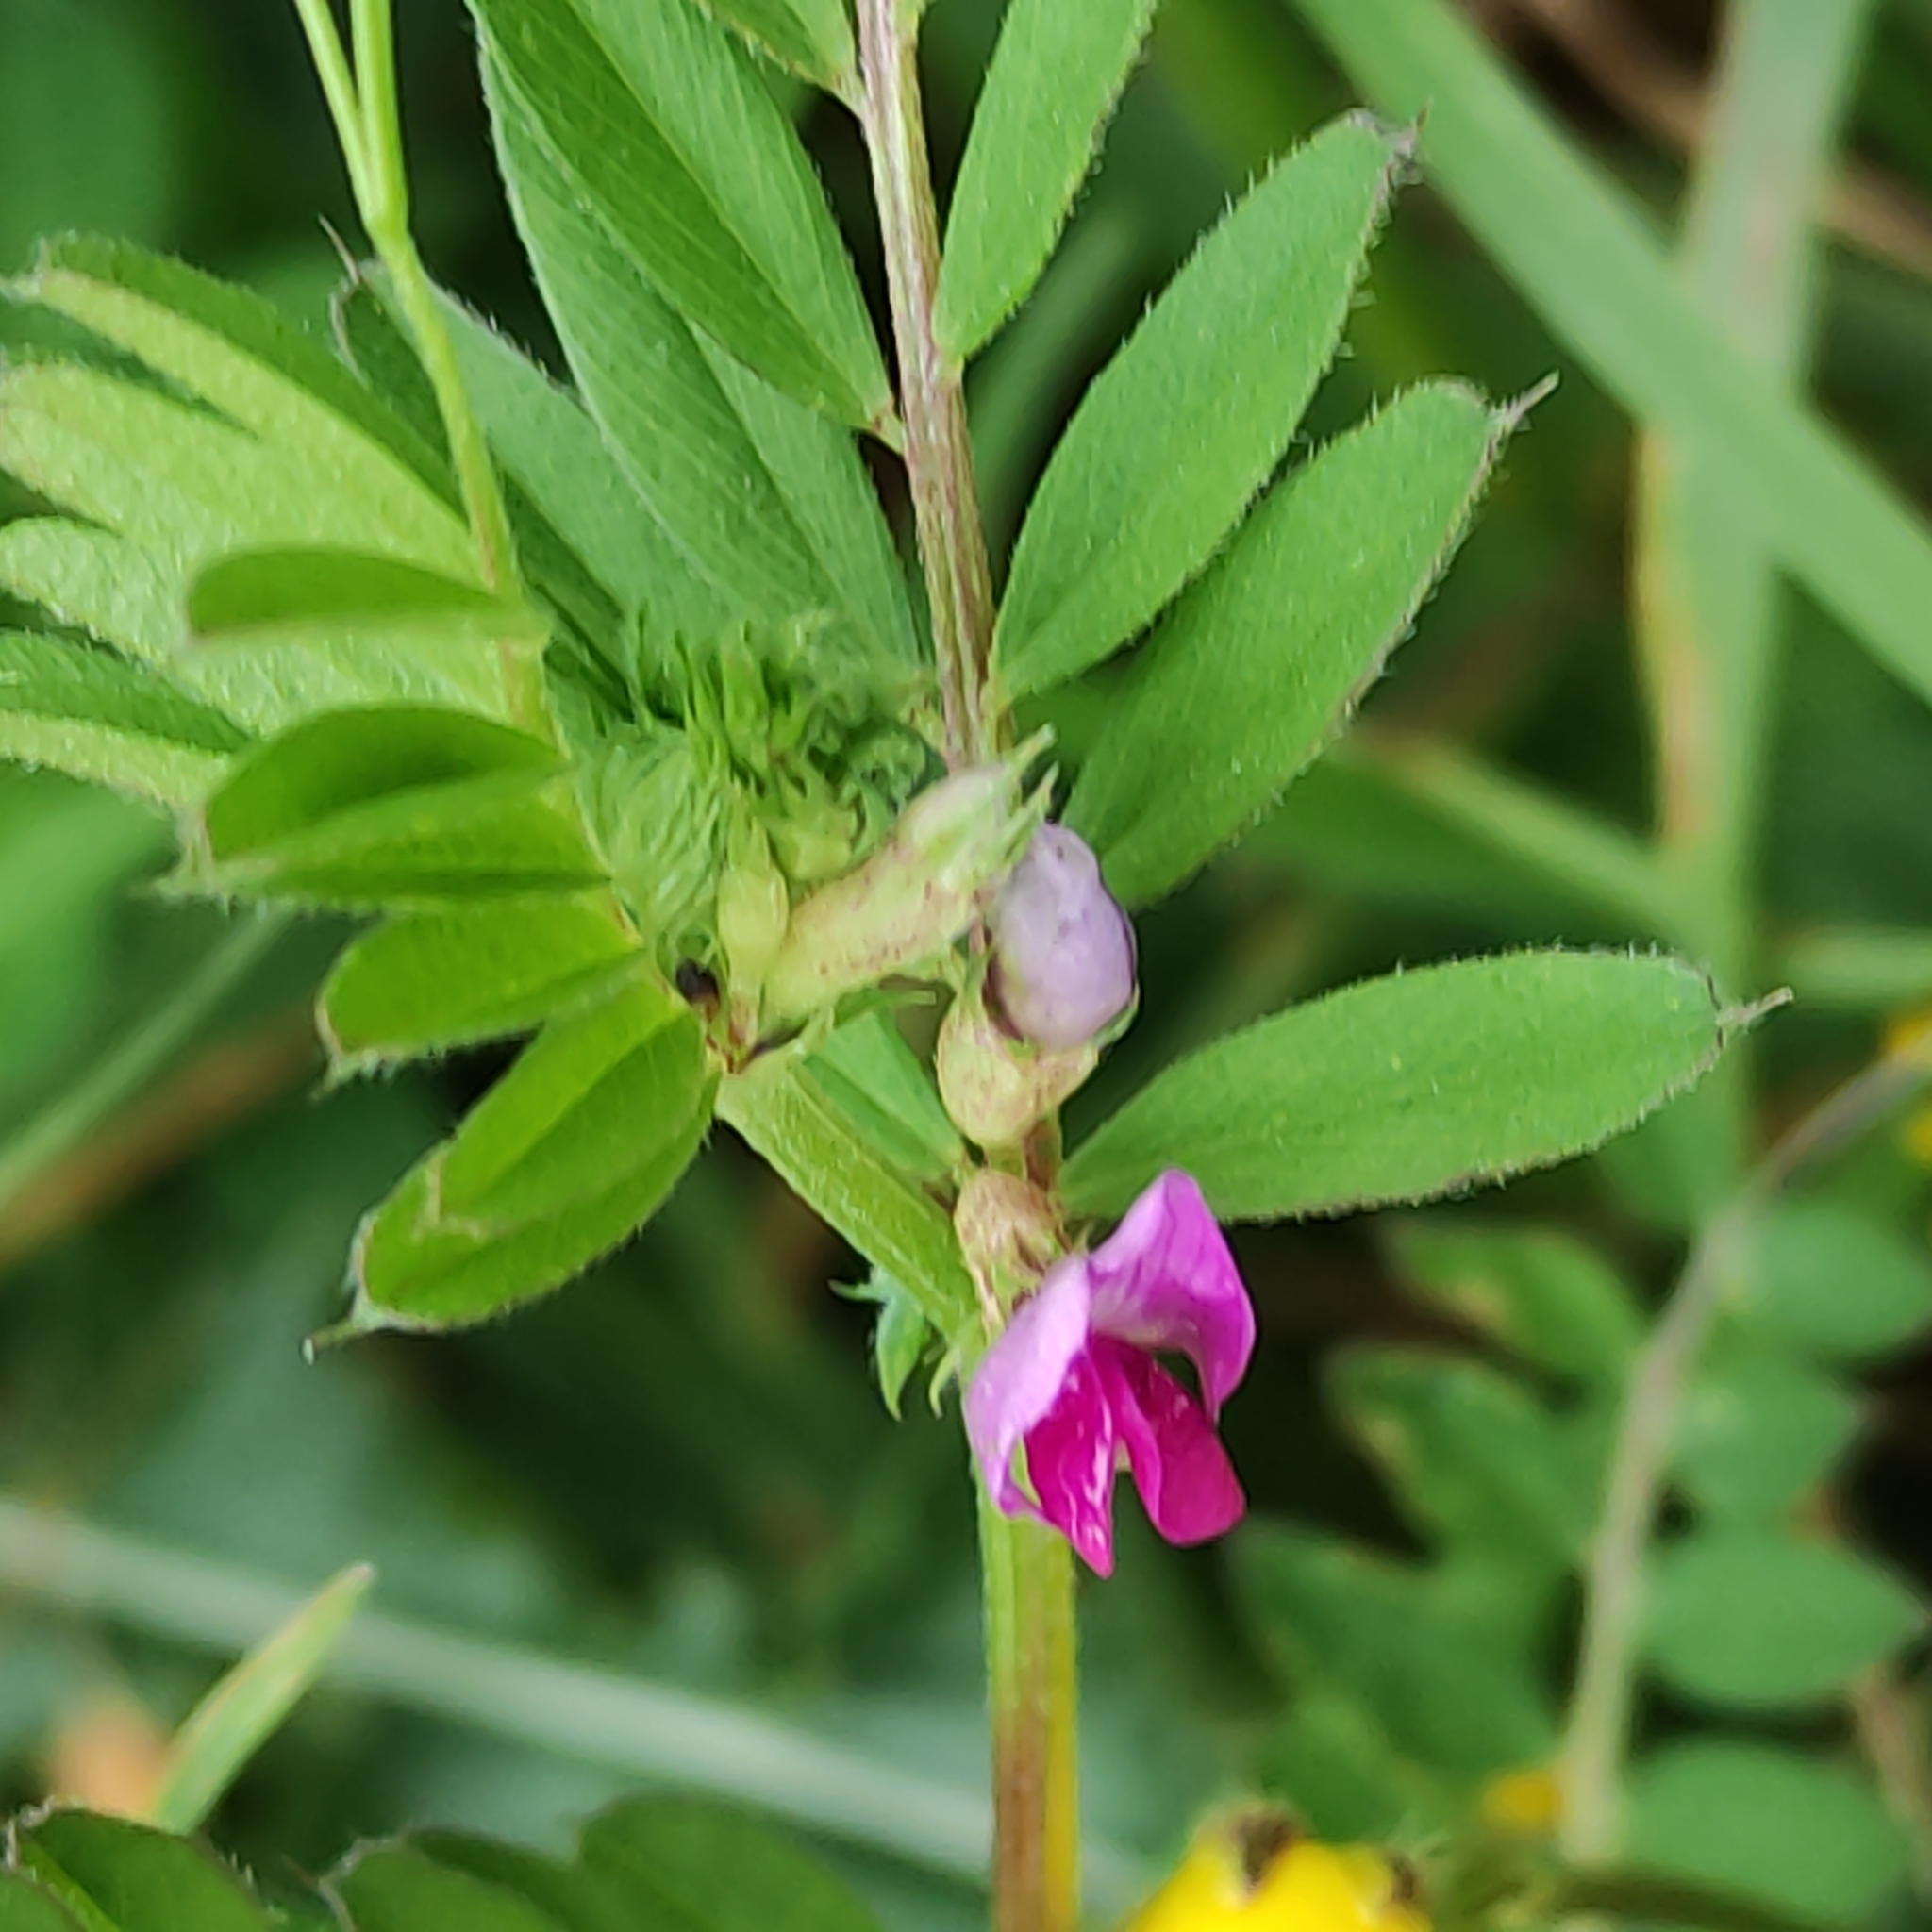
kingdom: Plantae
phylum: Tracheophyta
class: Magnoliopsida
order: Fabales
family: Fabaceae
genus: Vicia
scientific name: Vicia sativa
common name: Garden vetch
